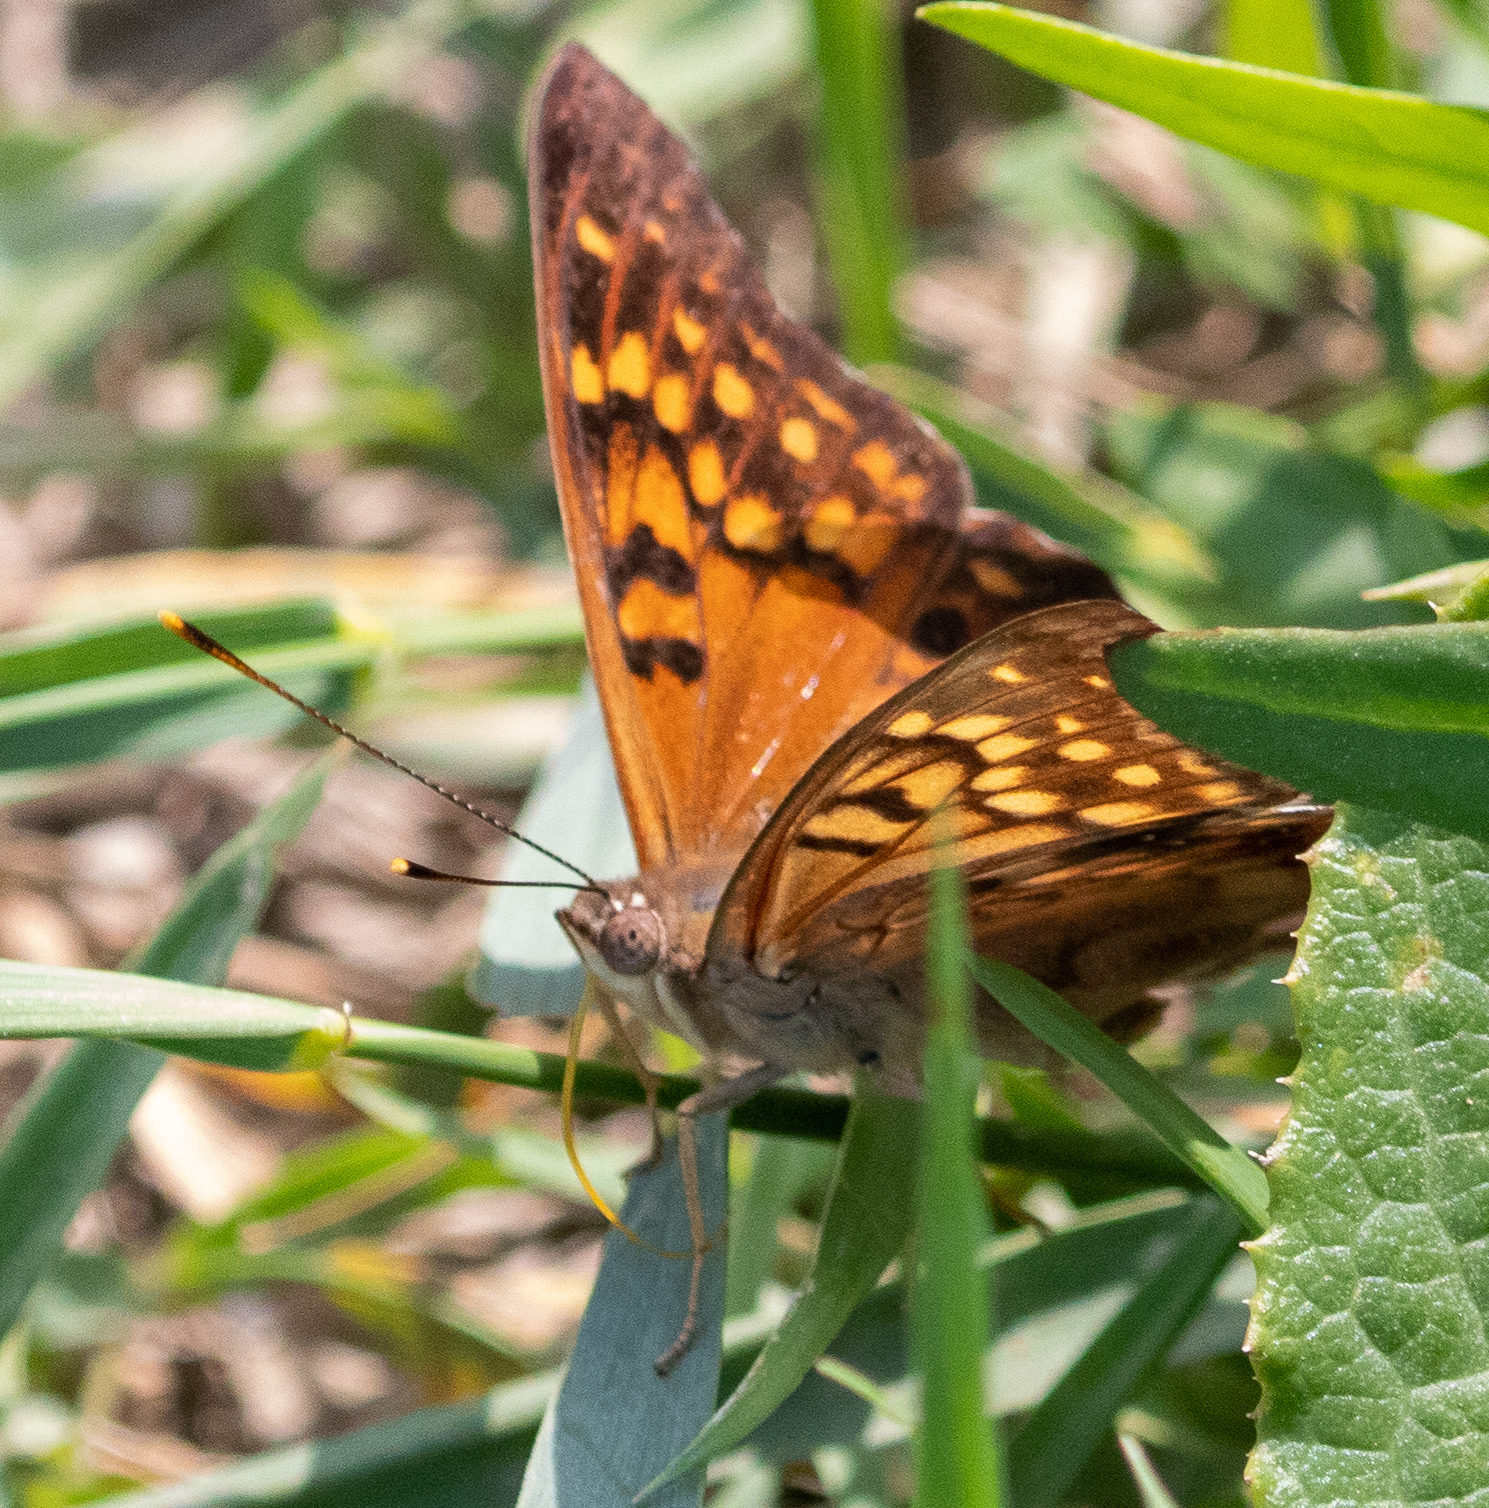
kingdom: Animalia
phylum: Arthropoda
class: Insecta
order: Lepidoptera
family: Nymphalidae
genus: Asterocampa
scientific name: Asterocampa clyton
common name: Tawny emperor
